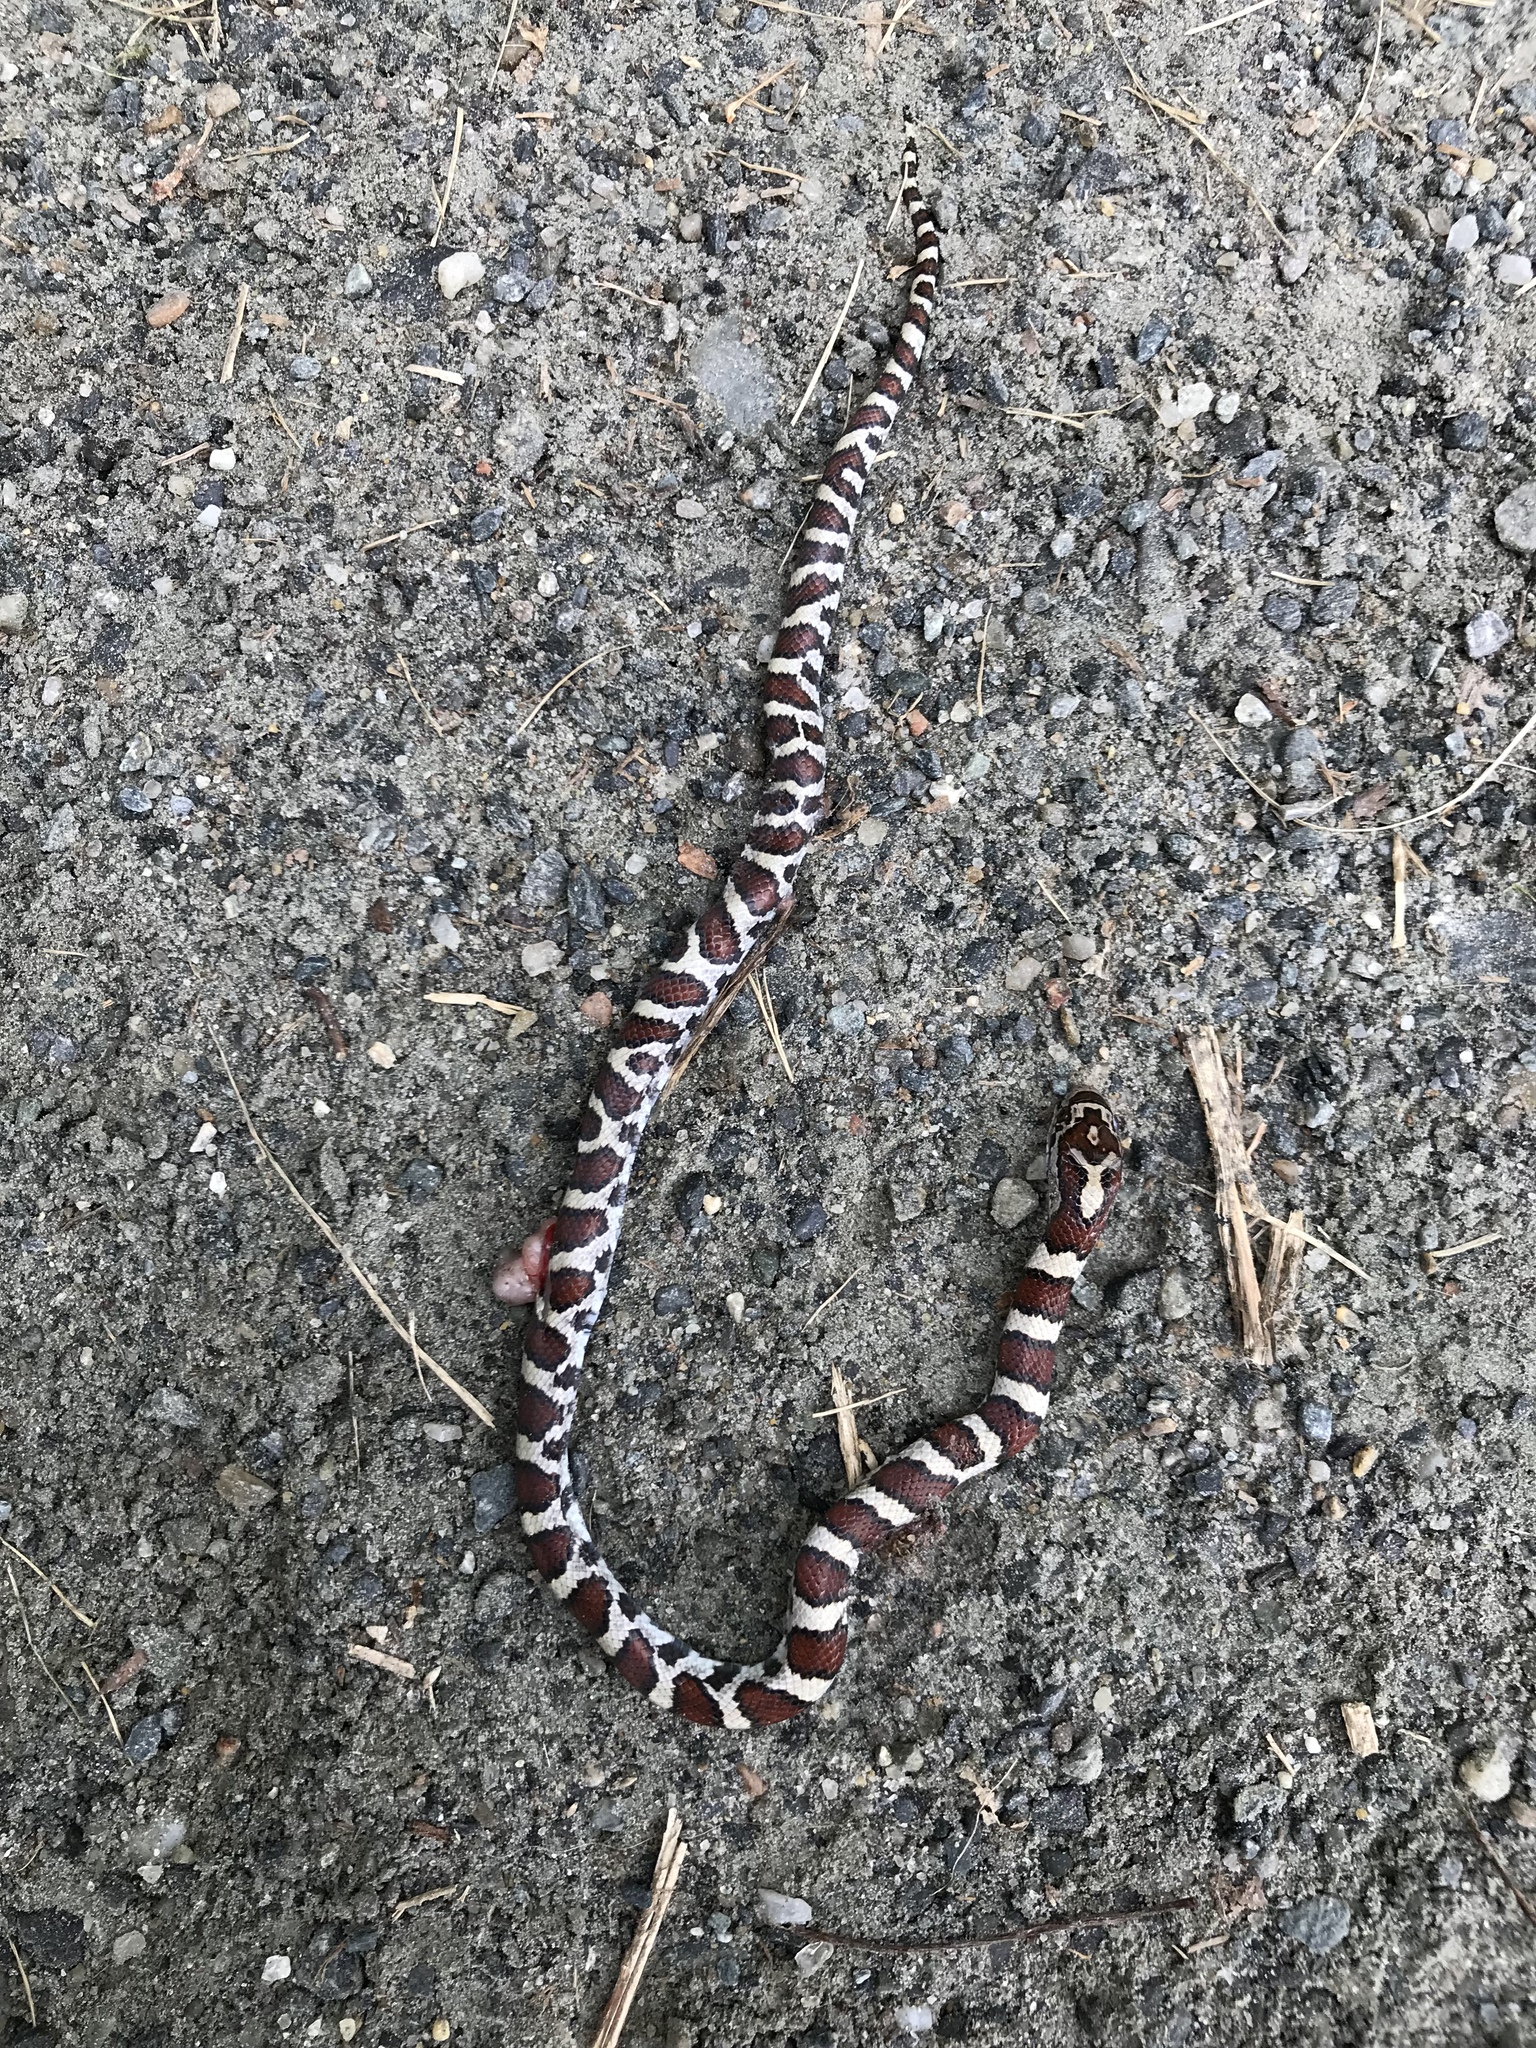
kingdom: Animalia
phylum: Chordata
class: Squamata
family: Colubridae
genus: Lampropeltis
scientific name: Lampropeltis triangulum
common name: Eastern milksnake
